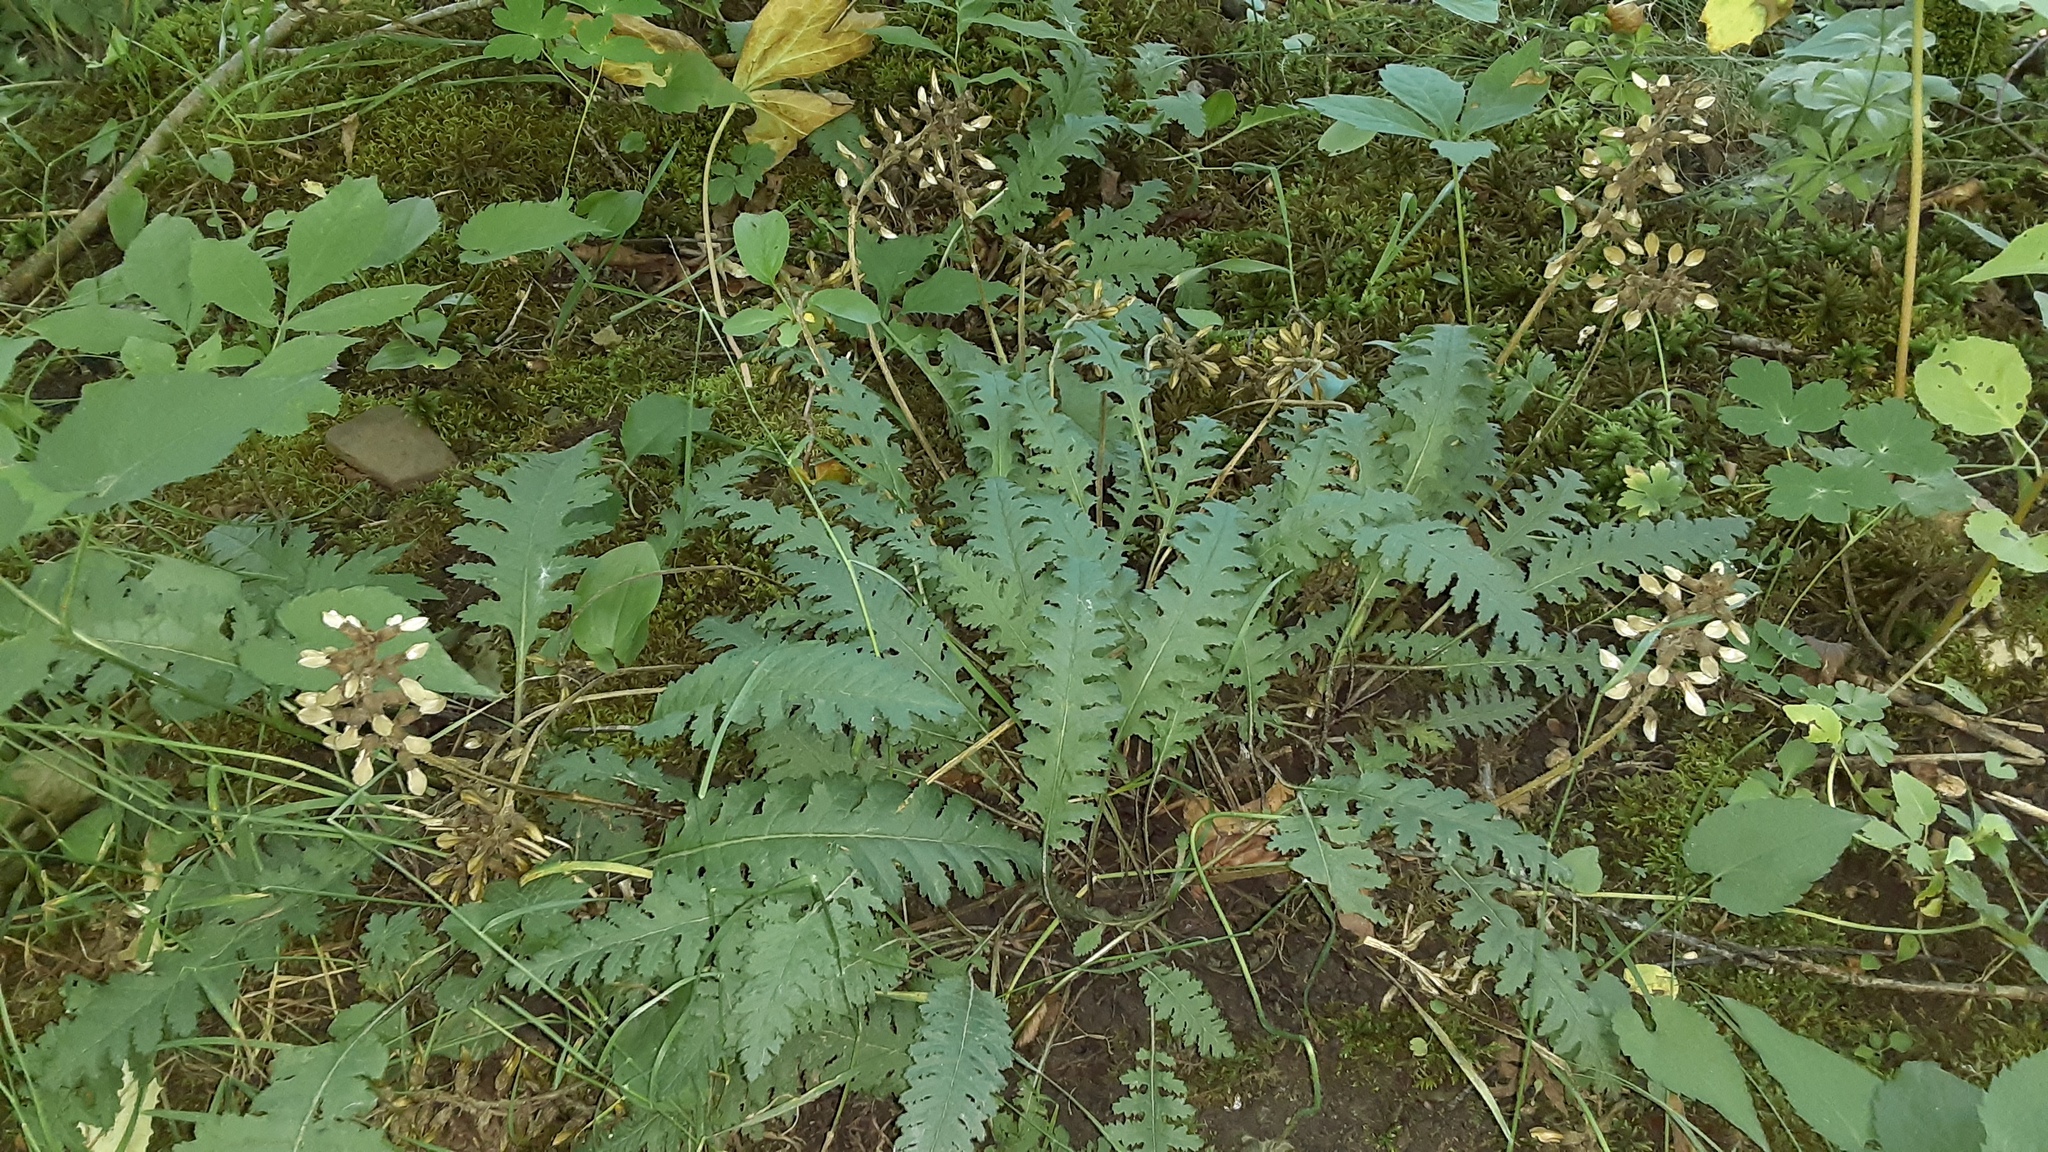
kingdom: Plantae
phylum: Tracheophyta
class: Magnoliopsida
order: Lamiales
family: Orobanchaceae
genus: Pedicularis
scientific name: Pedicularis canadensis
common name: Early lousewort
